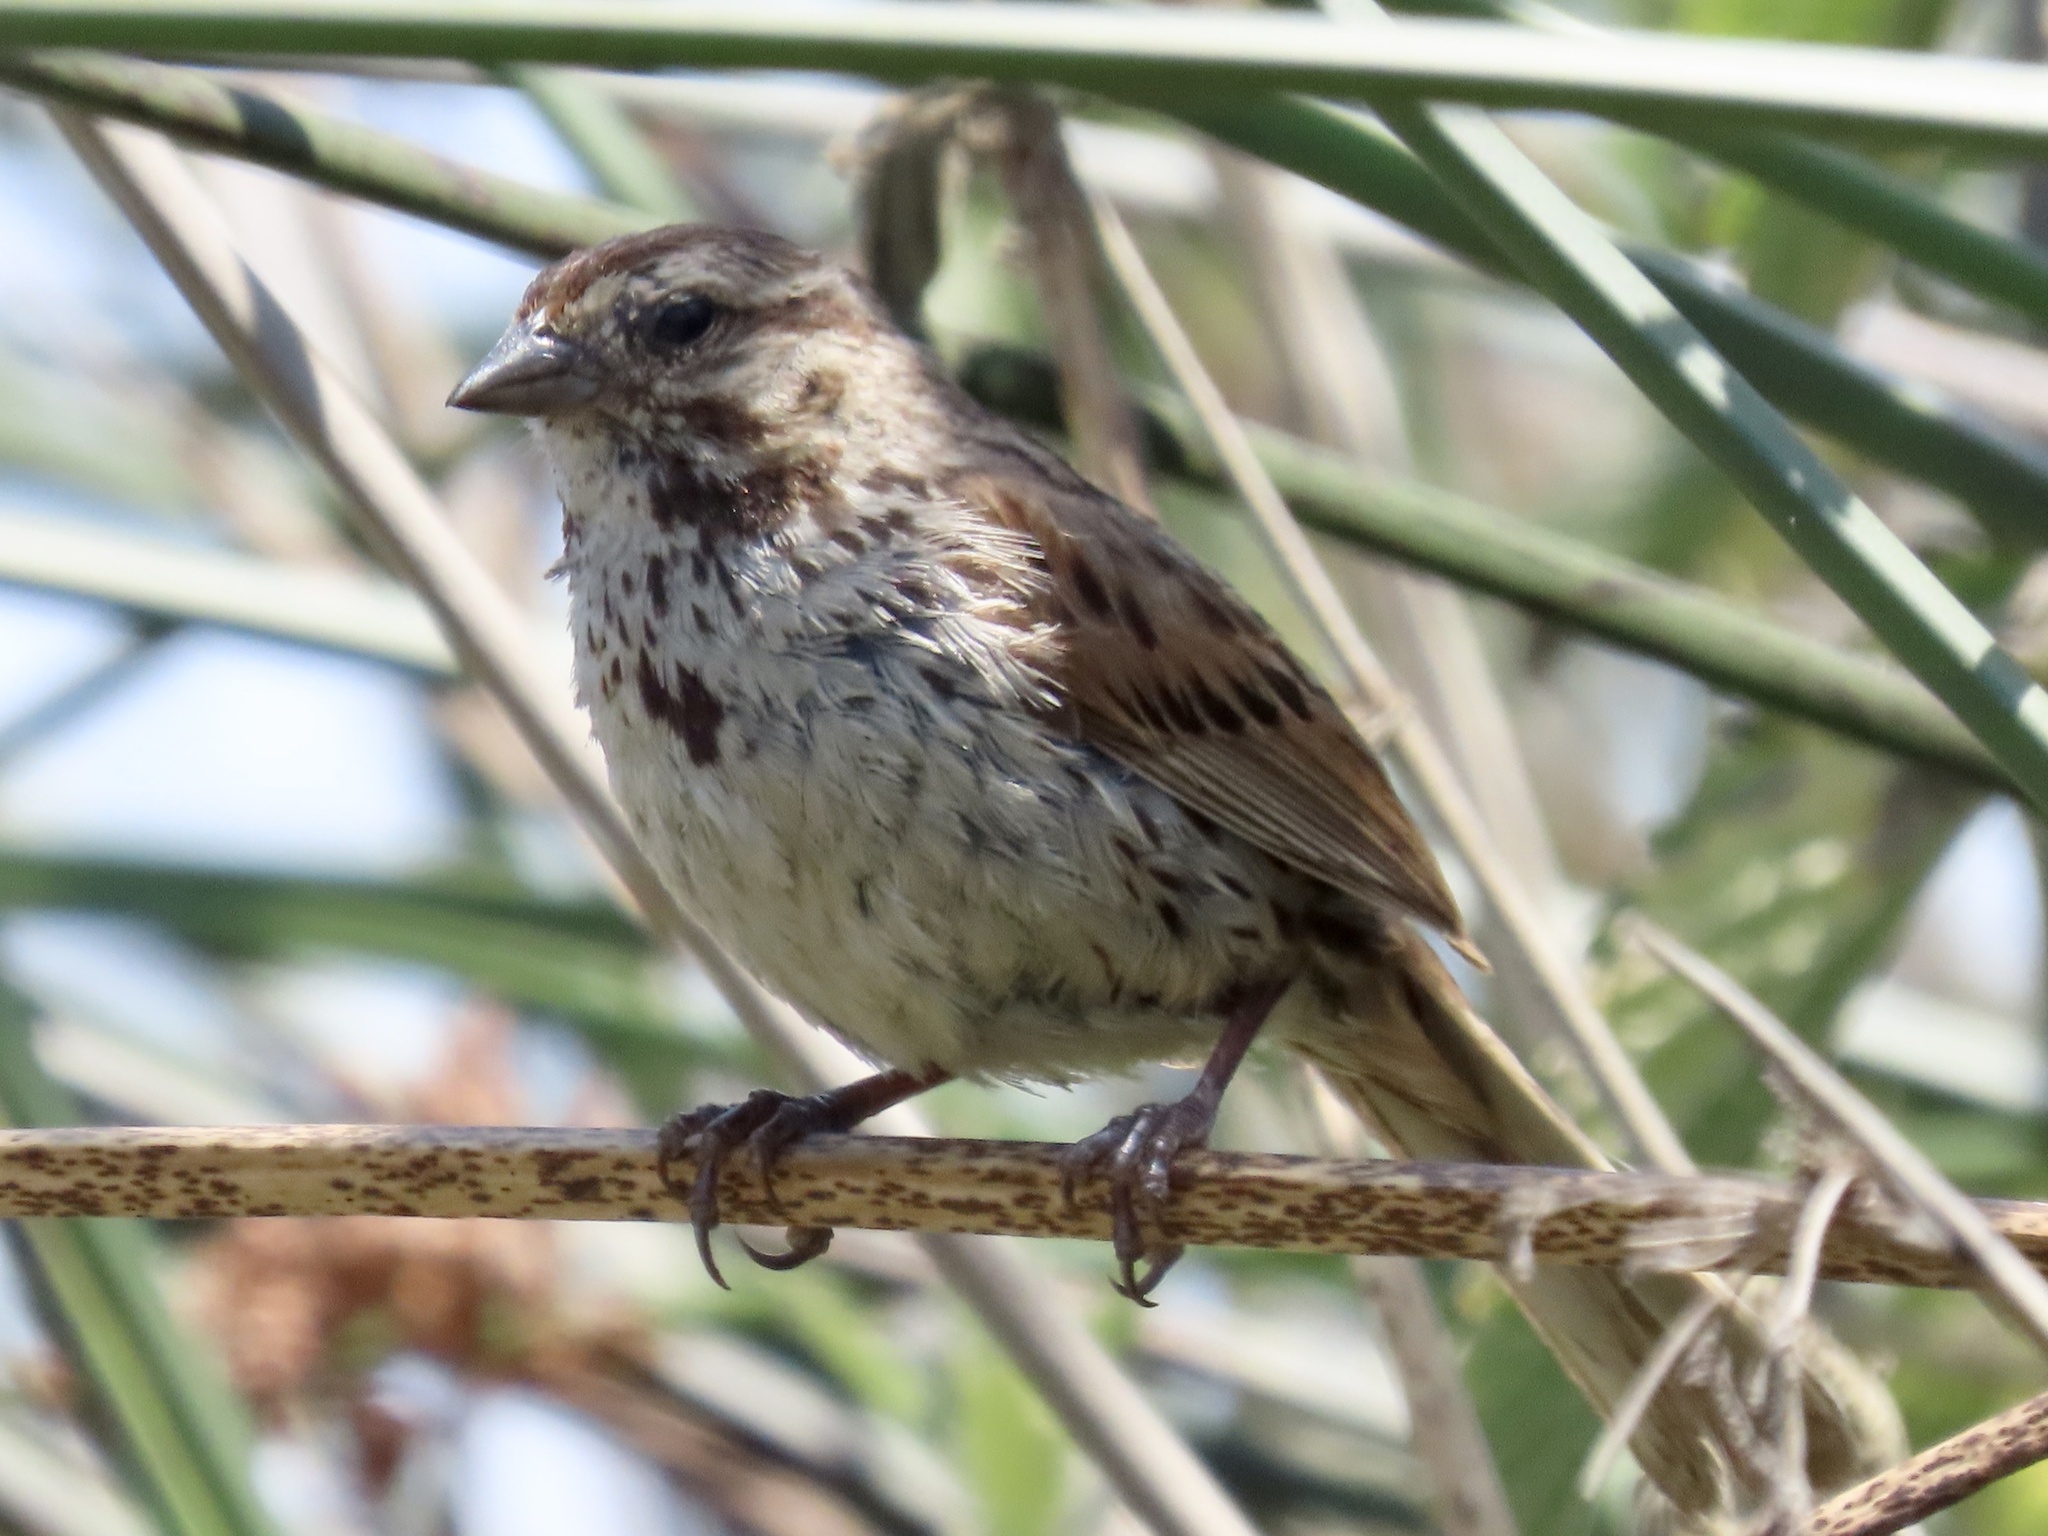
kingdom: Animalia
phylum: Chordata
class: Aves
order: Passeriformes
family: Passerellidae
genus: Melospiza
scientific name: Melospiza melodia
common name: Song sparrow
